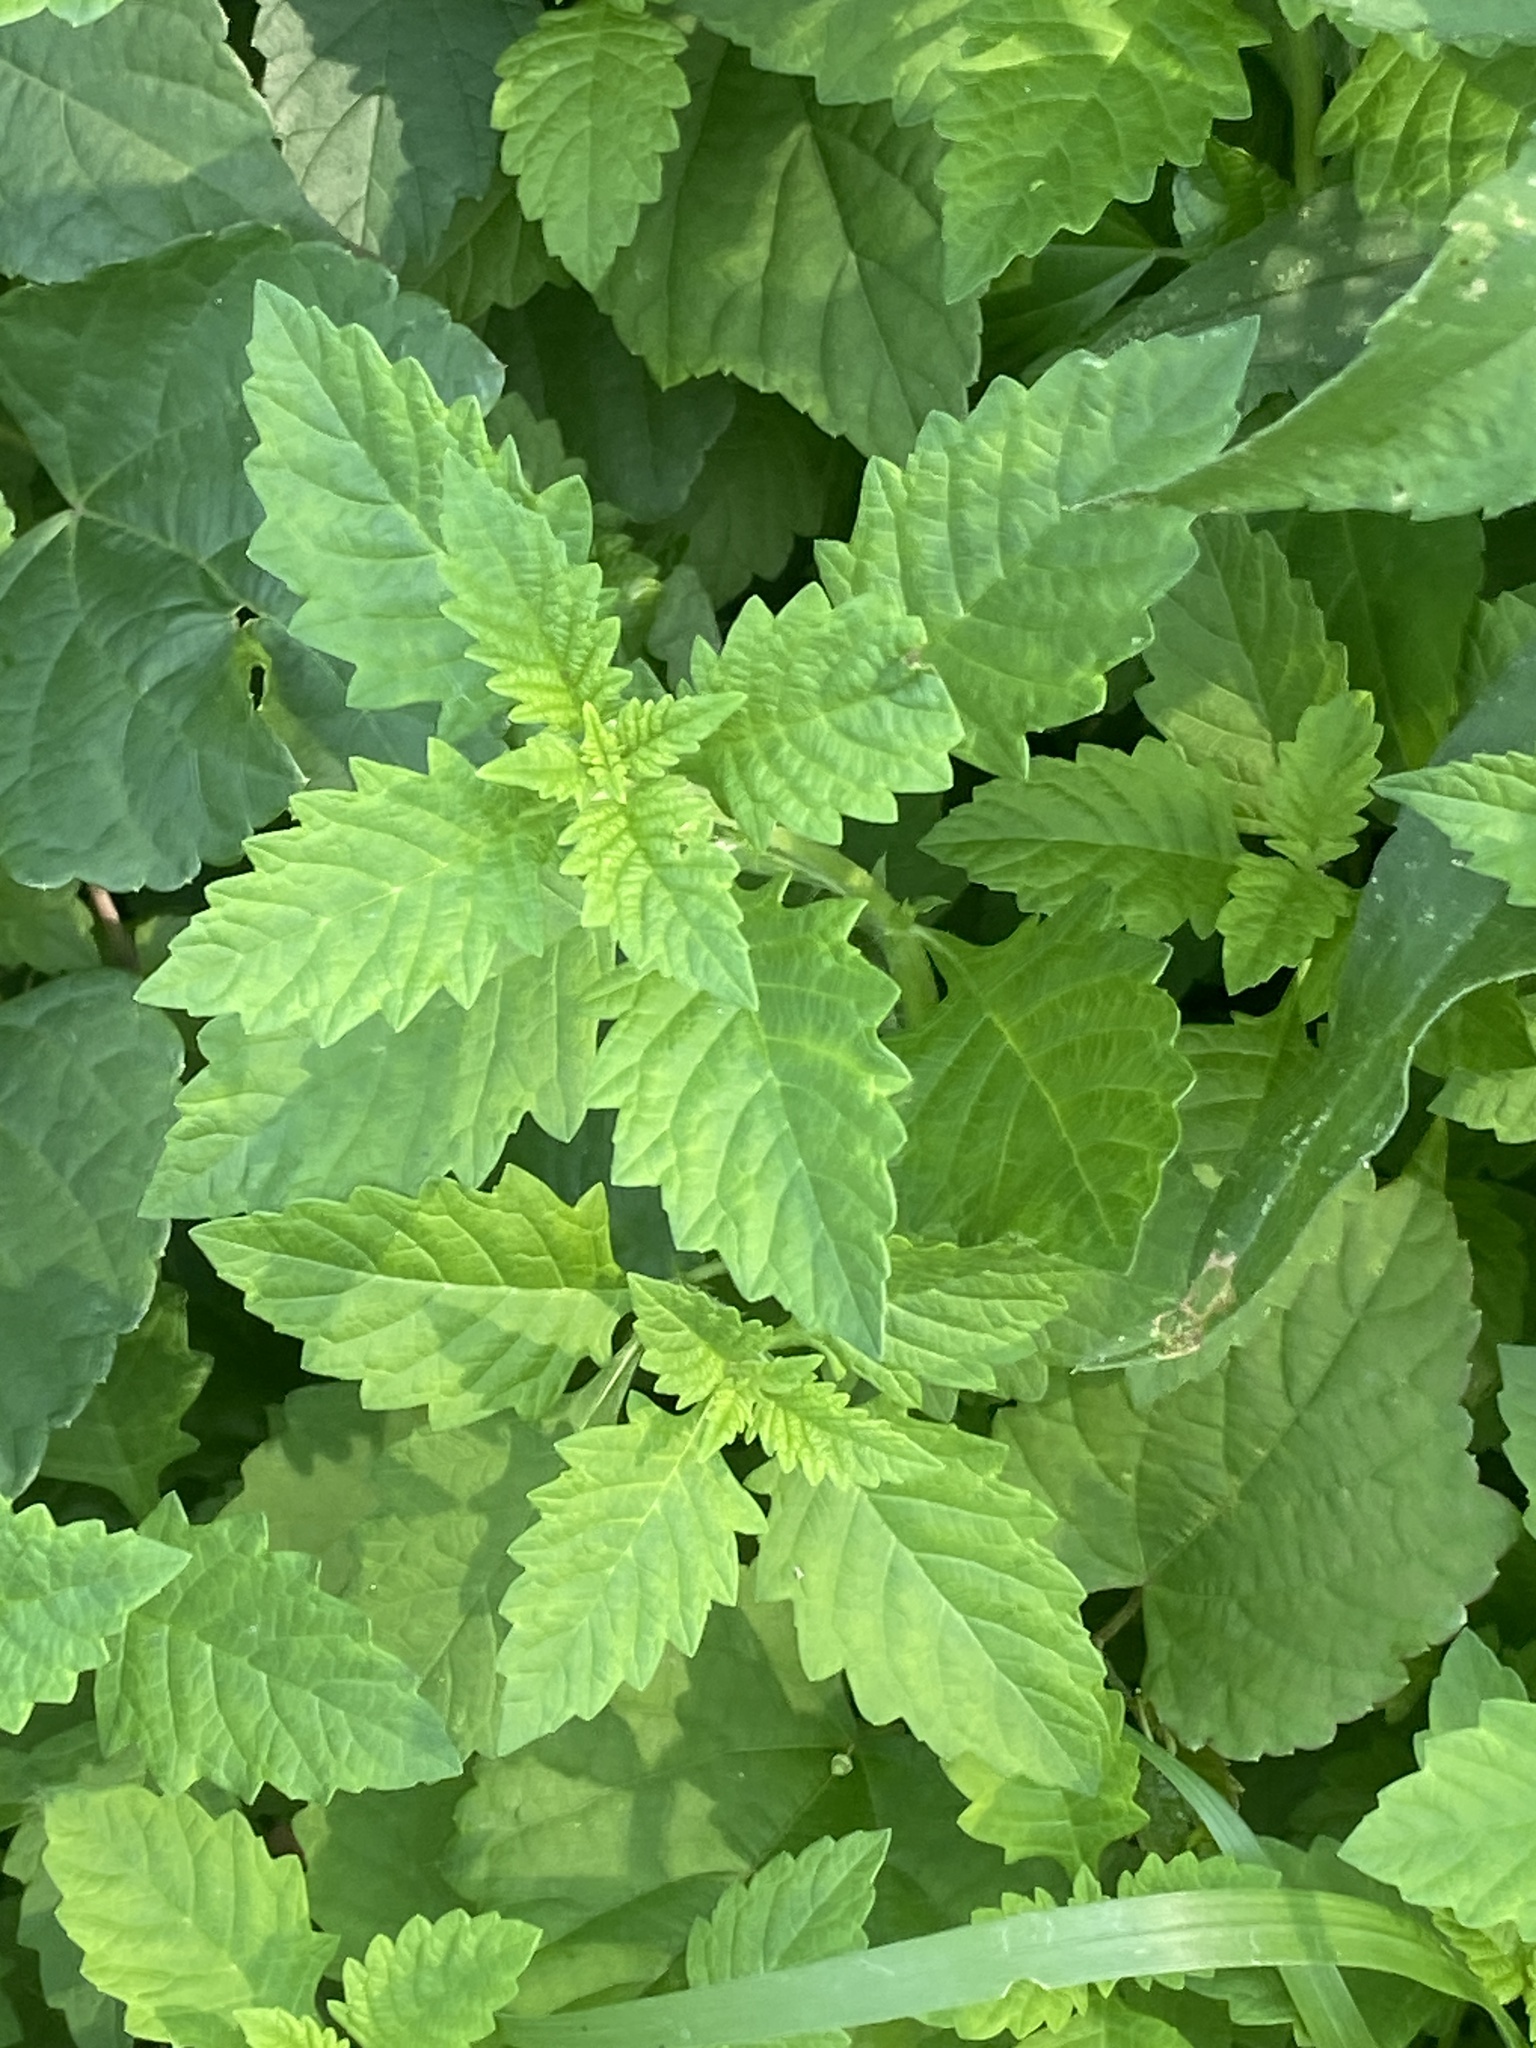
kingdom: Plantae
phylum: Tracheophyta
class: Magnoliopsida
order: Lamiales
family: Lamiaceae
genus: Lycopus
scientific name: Lycopus europaeus
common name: European bugleweed
